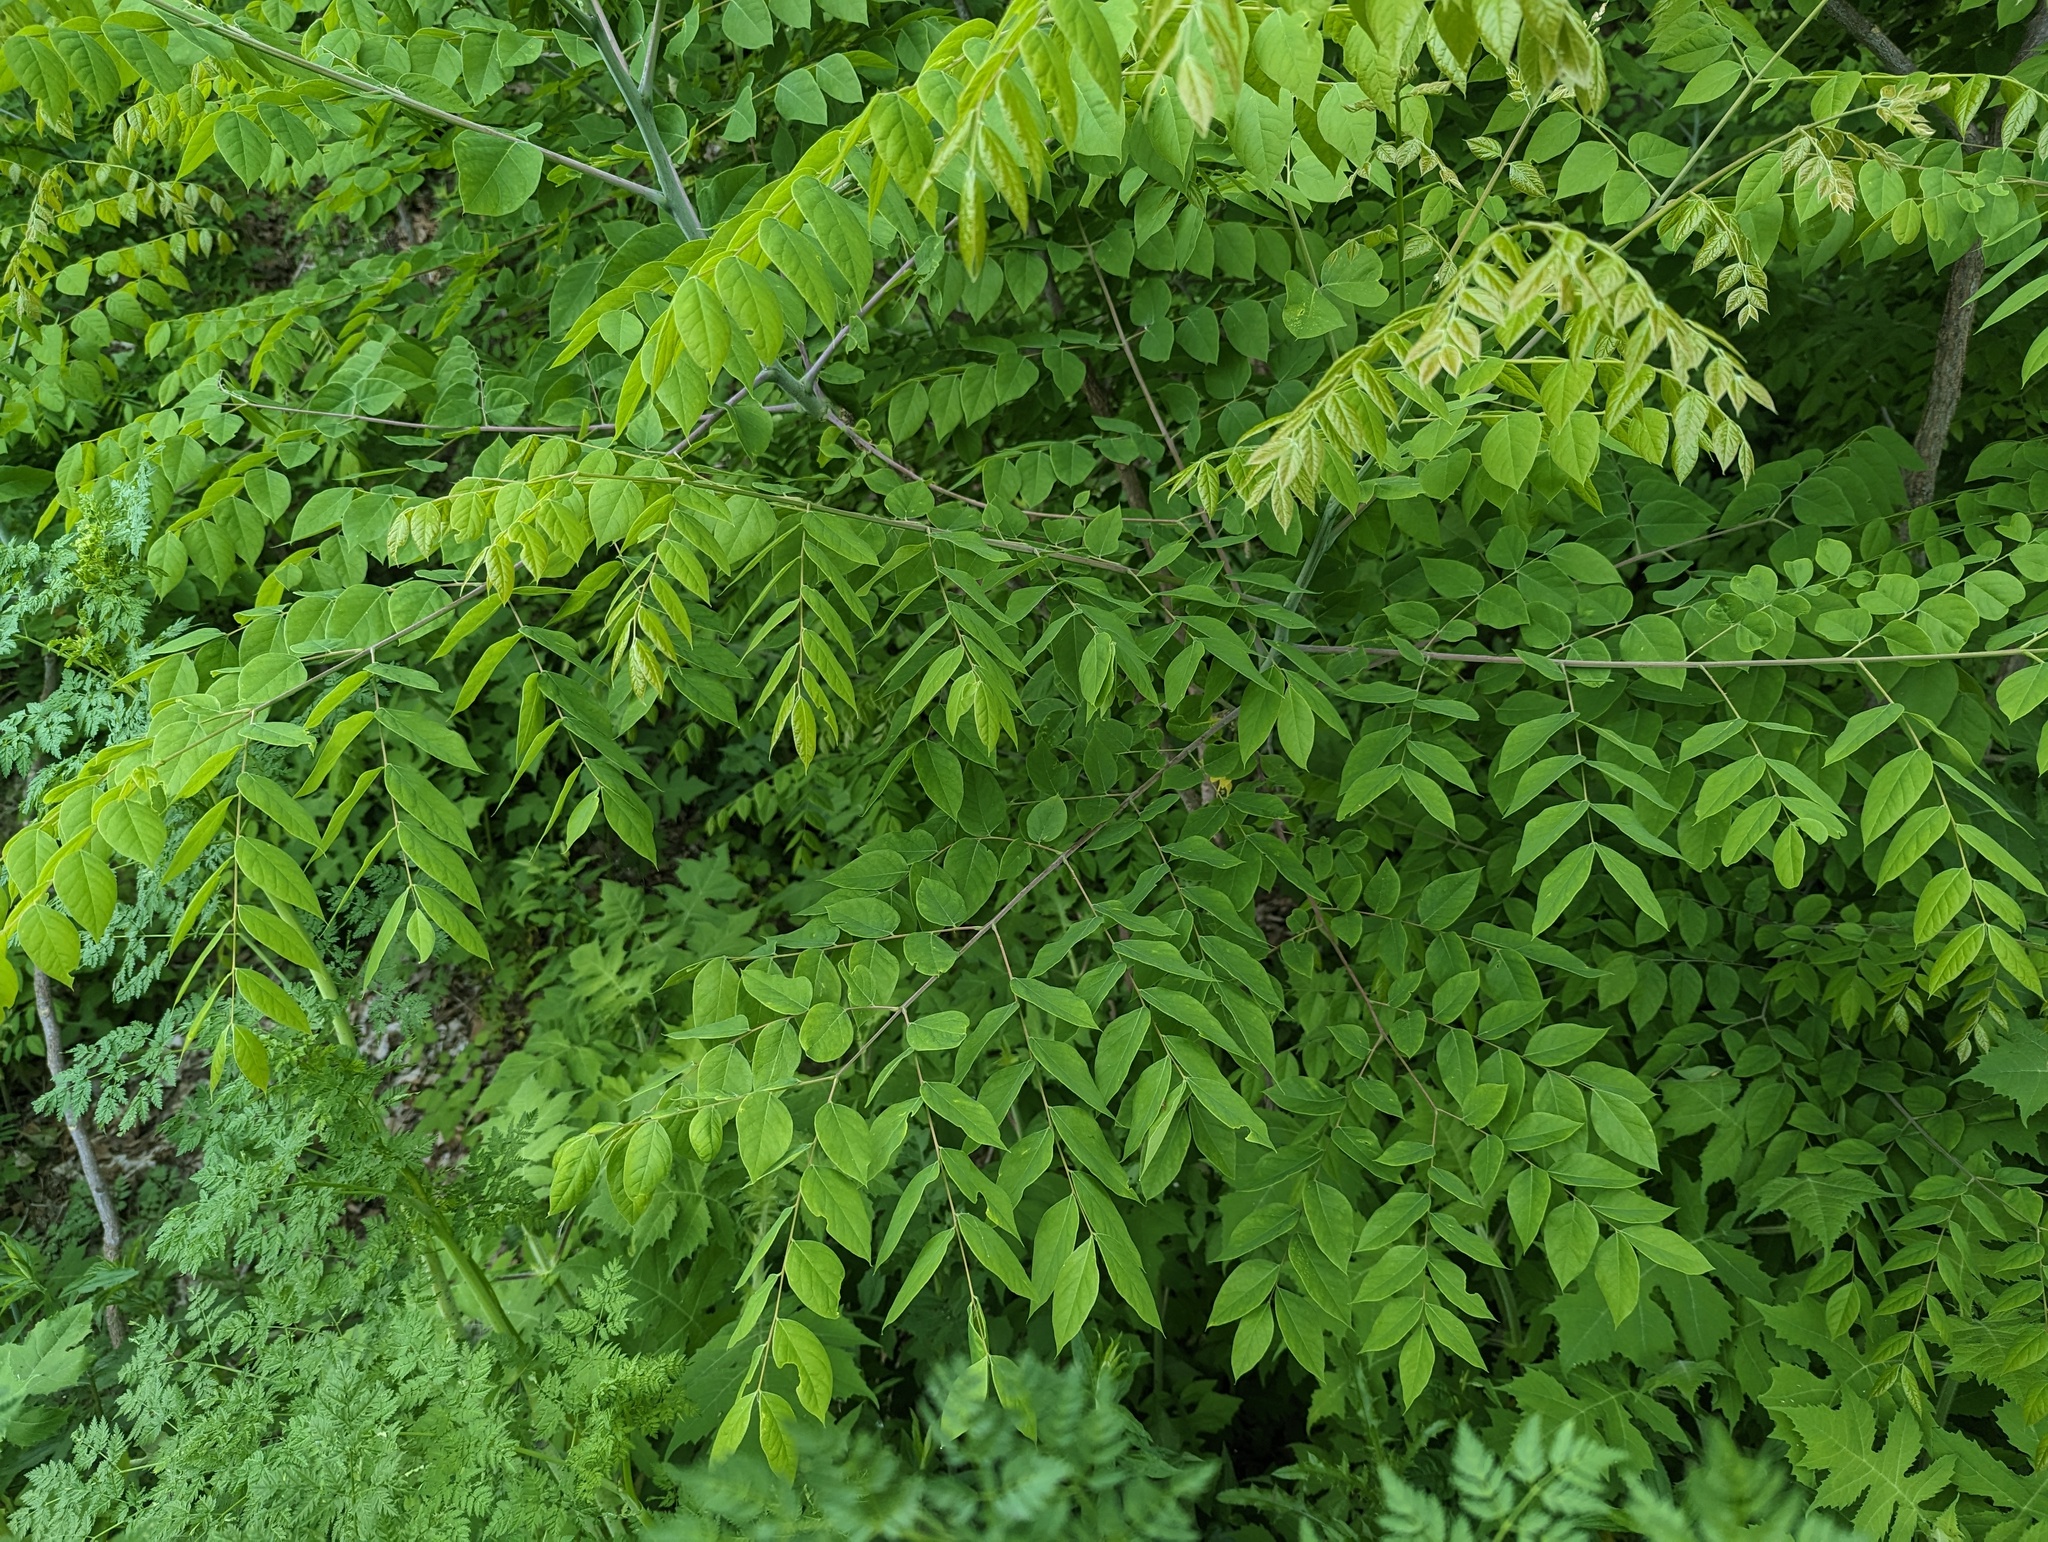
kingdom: Plantae
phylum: Tracheophyta
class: Magnoliopsida
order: Fabales
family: Fabaceae
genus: Gymnocladus
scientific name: Gymnocladus dioicus
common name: Kentucky coffee-tree
